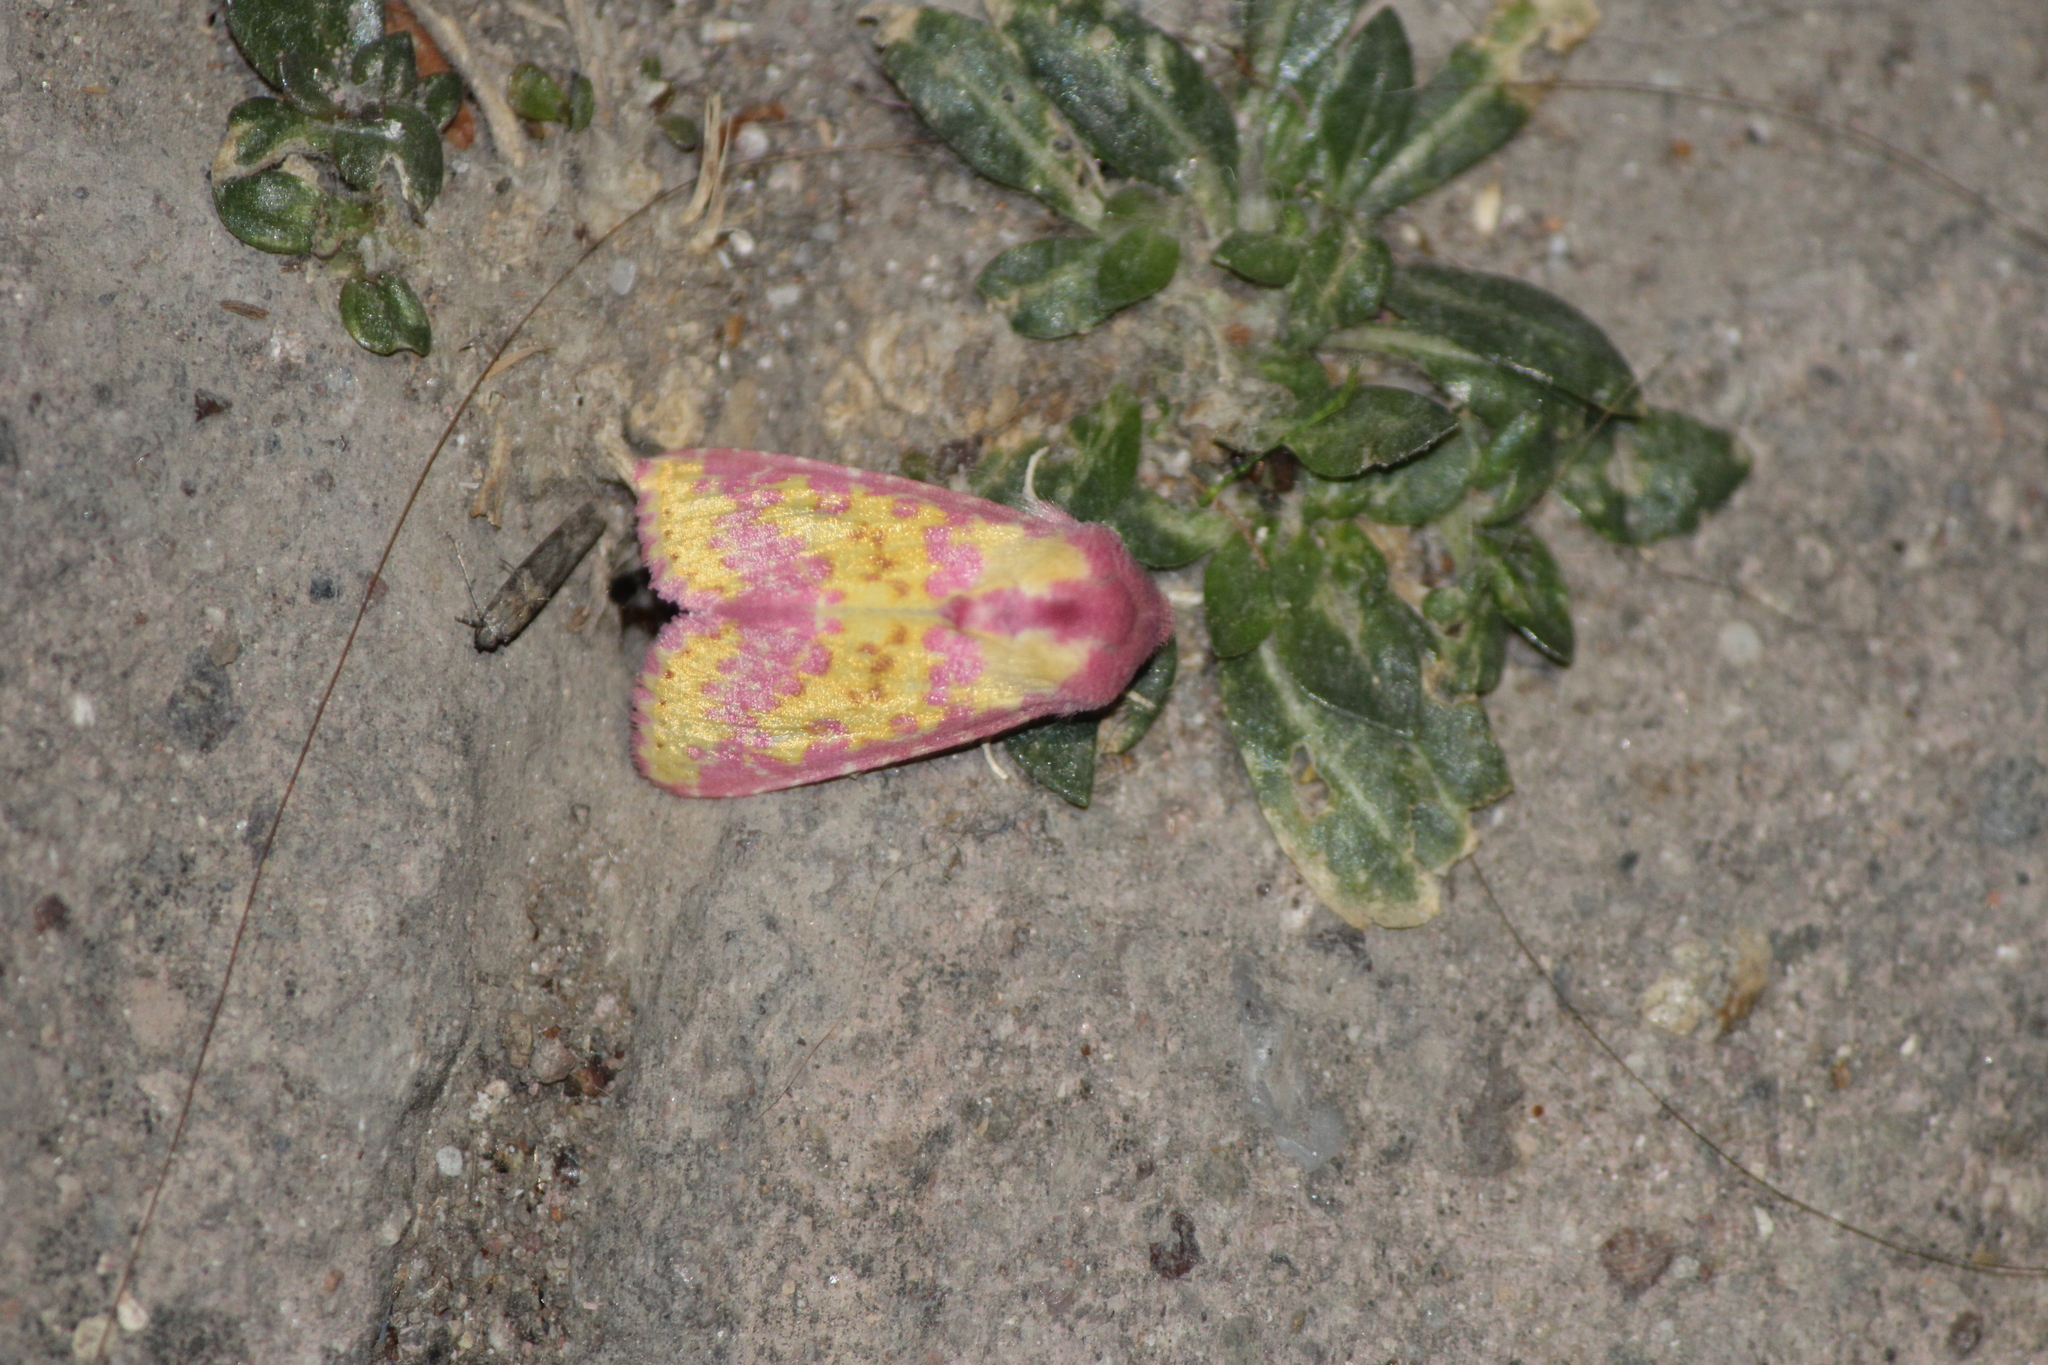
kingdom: Animalia
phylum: Arthropoda
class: Insecta
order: Lepidoptera
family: Noctuidae
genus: Erythroecia
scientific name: Erythroecia euposis
